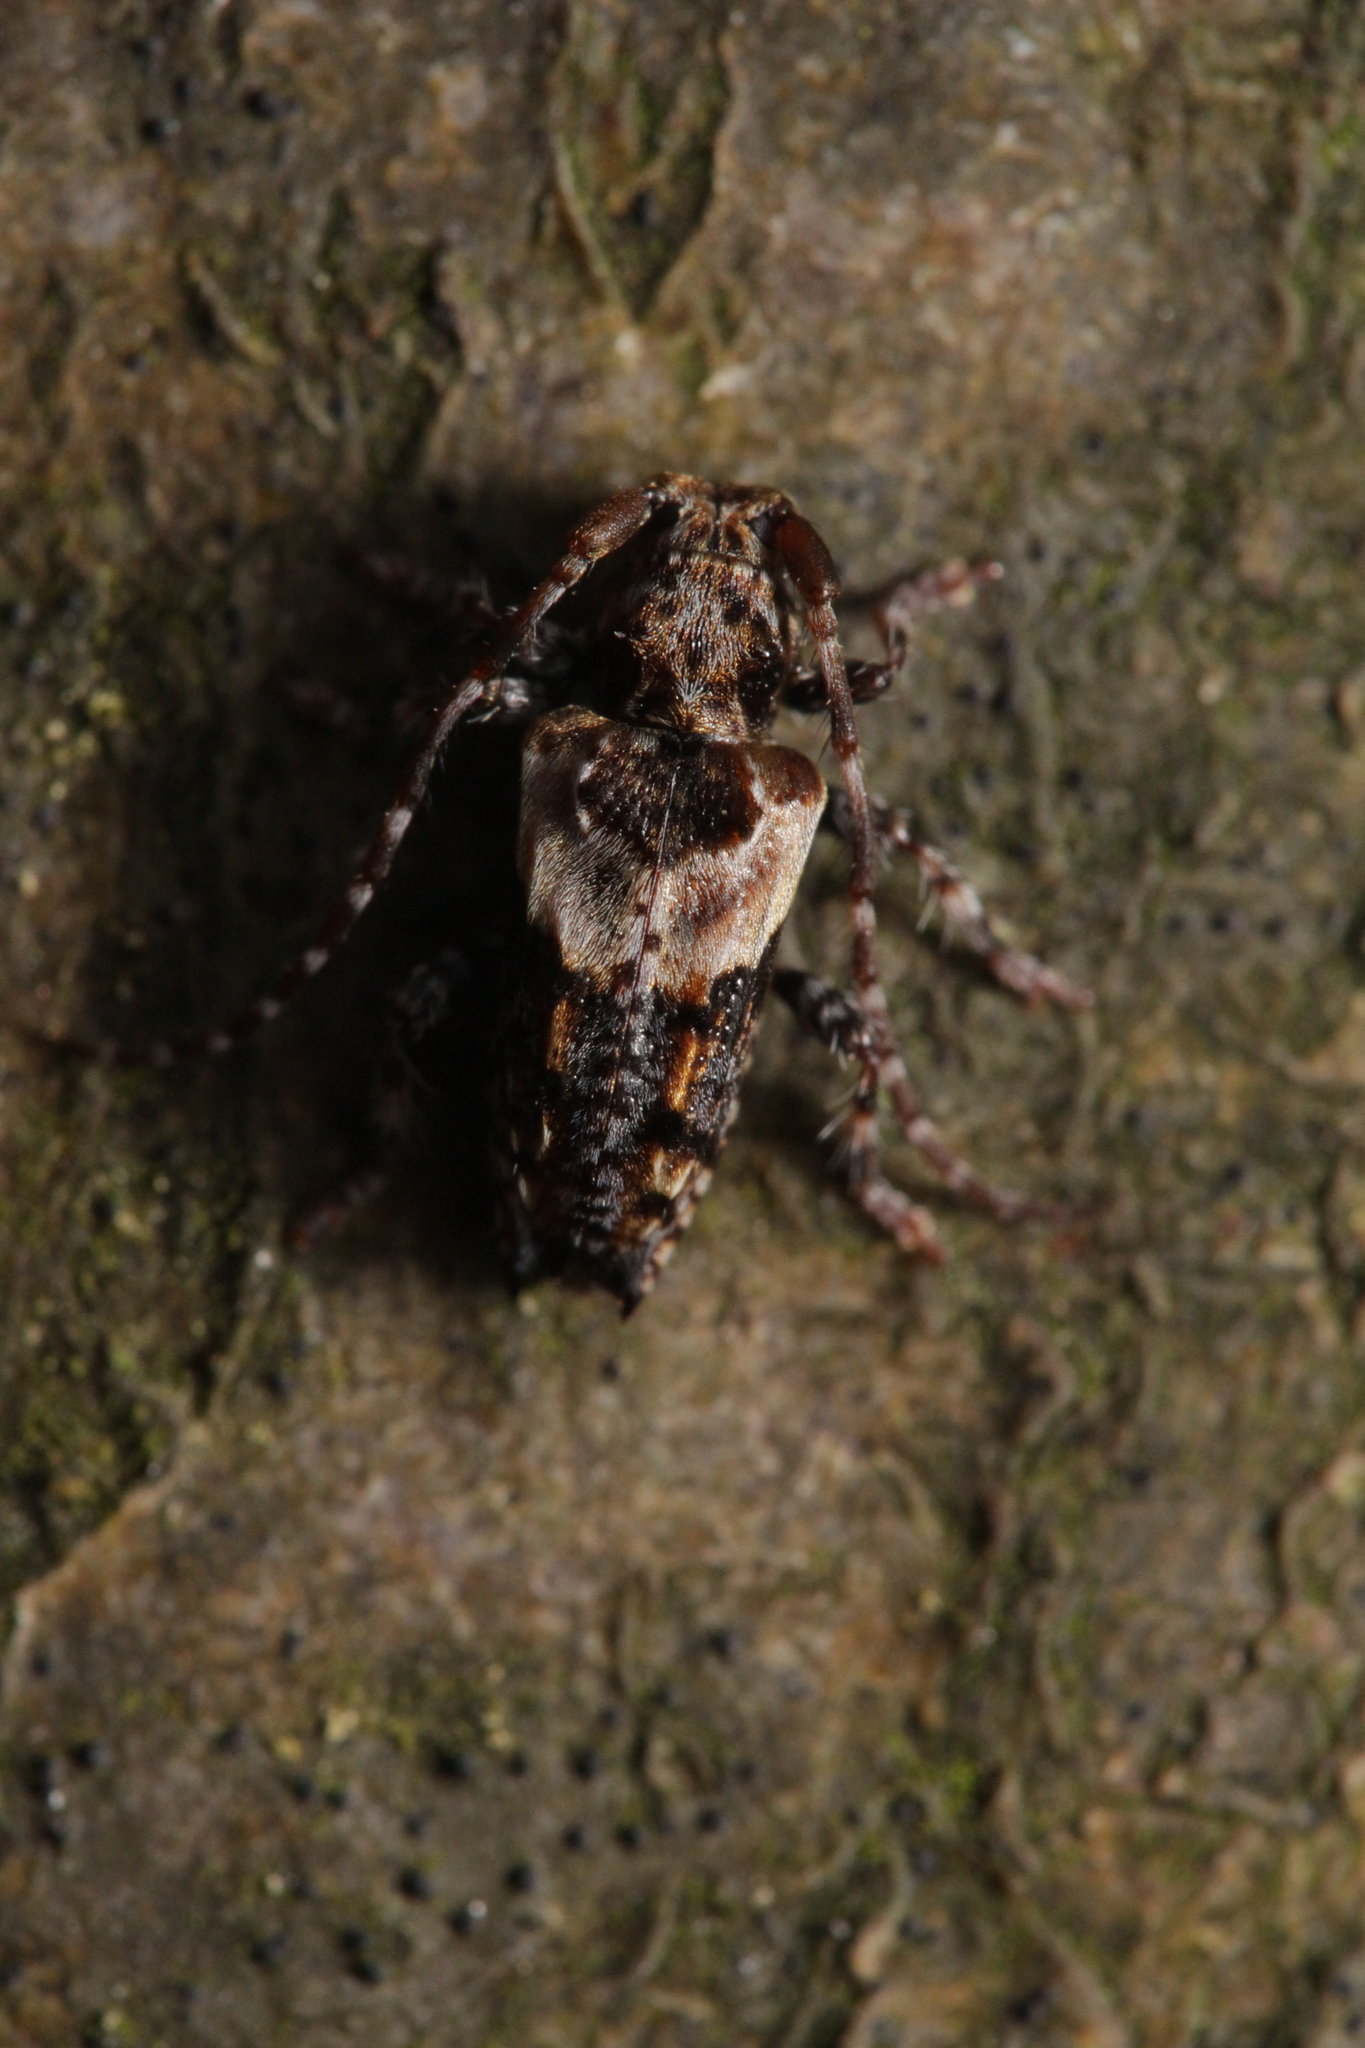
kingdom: Animalia
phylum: Arthropoda
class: Insecta
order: Coleoptera
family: Cerambycidae
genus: Pogonocherus
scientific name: Pogonocherus hispidus
